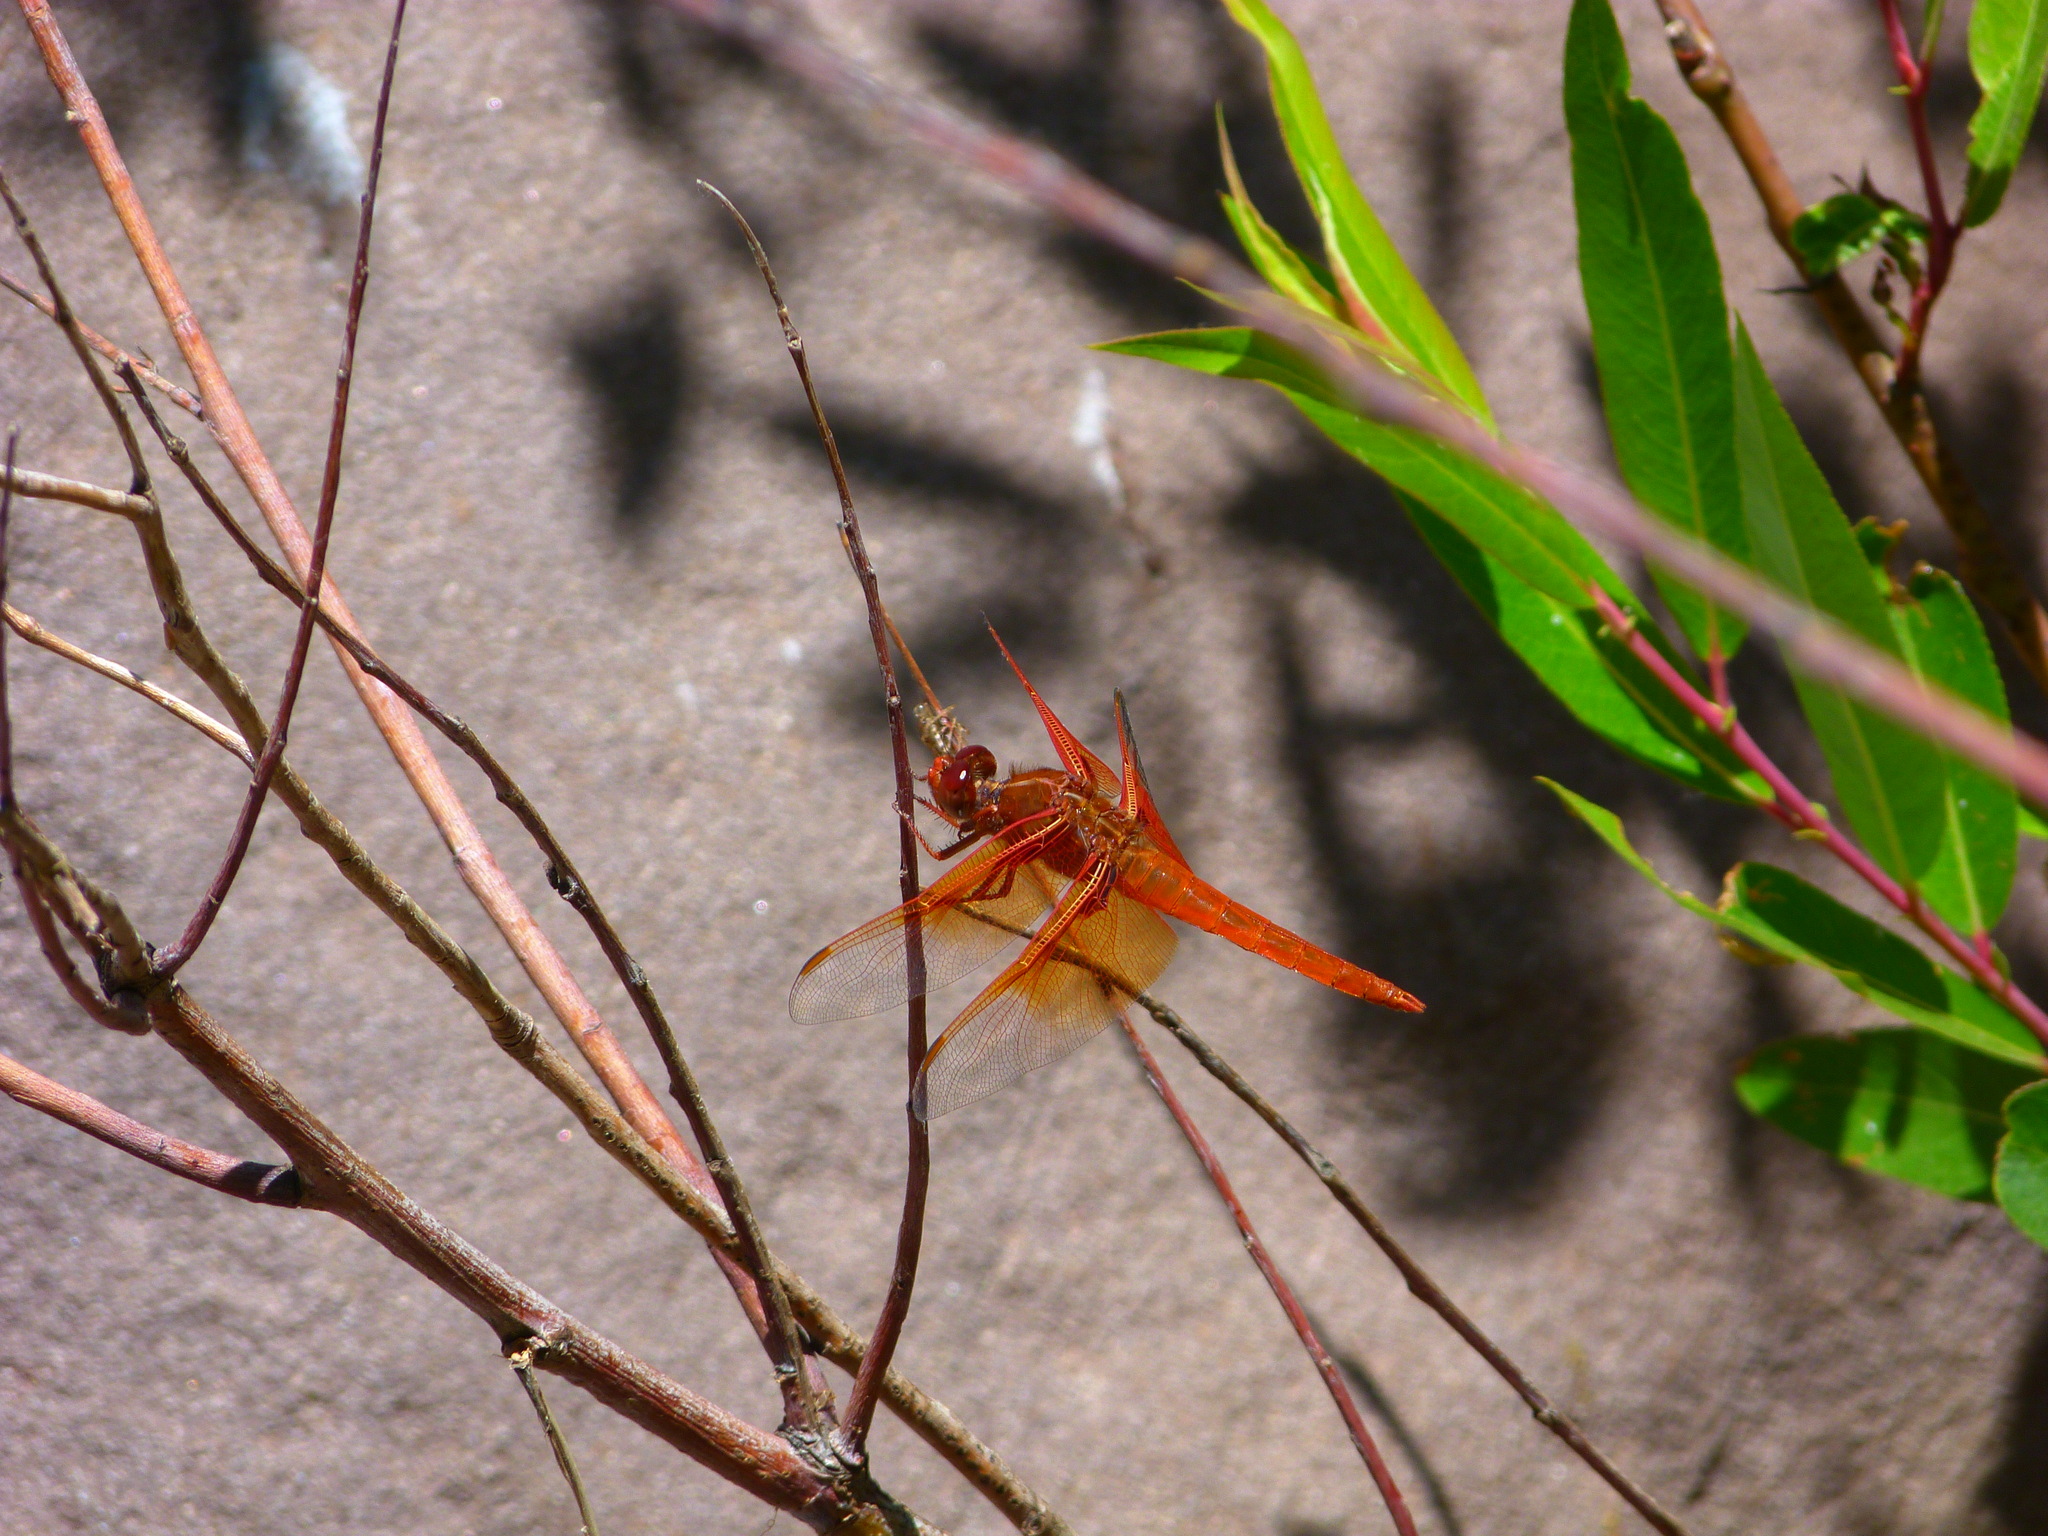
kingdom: Animalia
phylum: Arthropoda
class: Insecta
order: Odonata
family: Libellulidae
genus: Libellula
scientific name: Libellula saturata
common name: Flame skimmer
